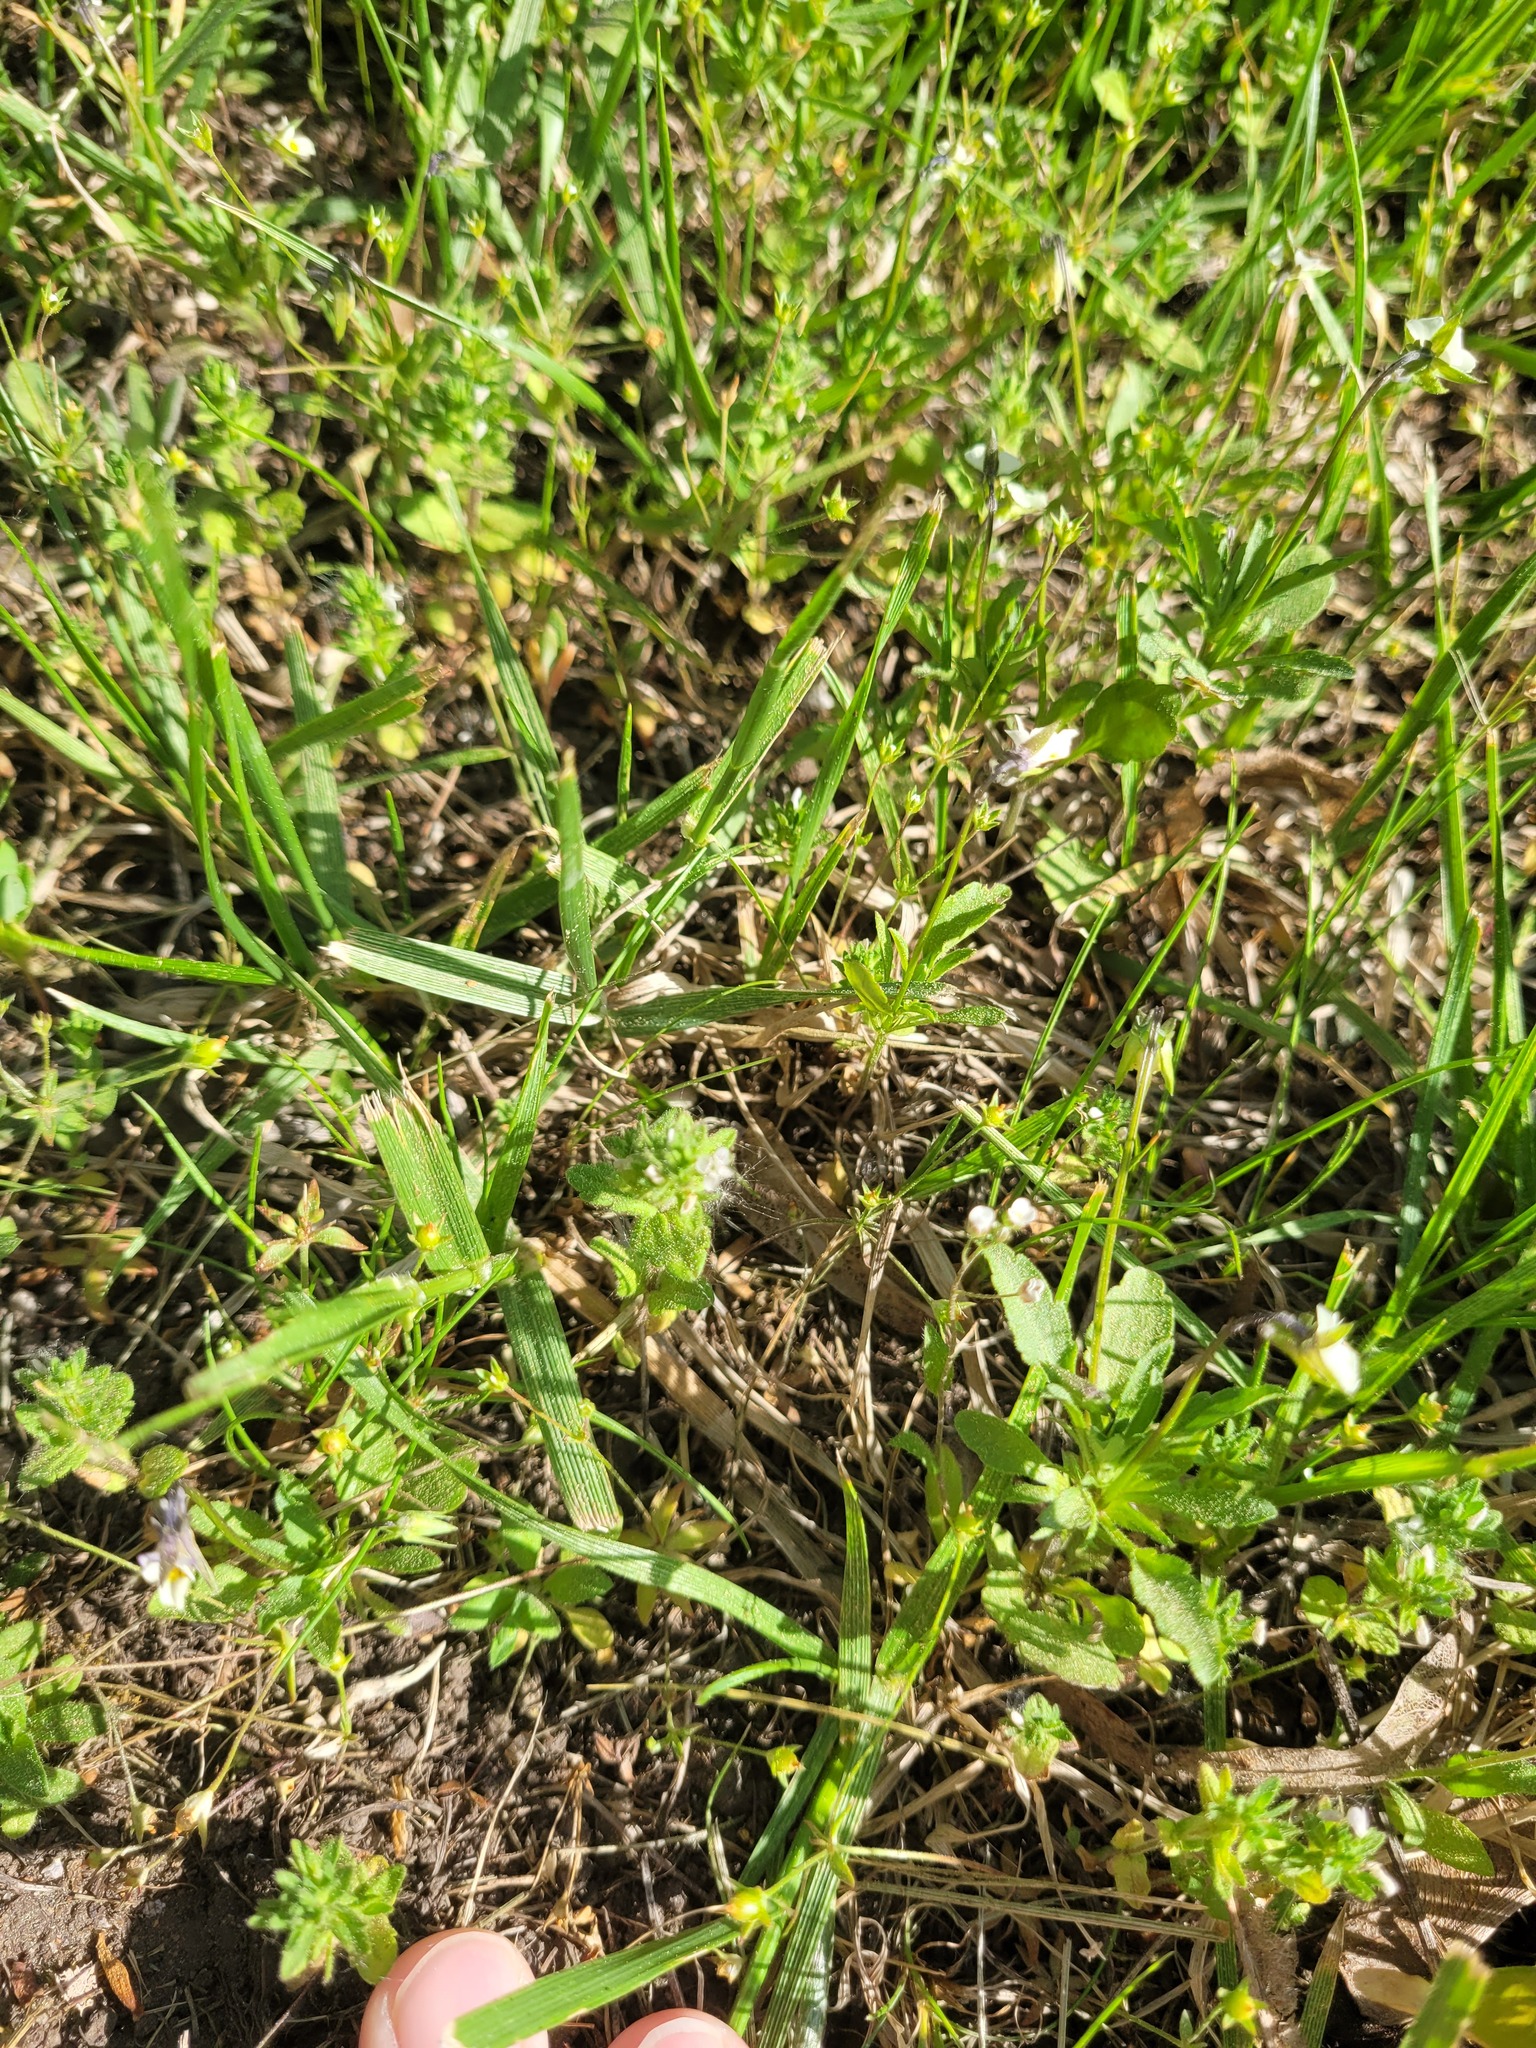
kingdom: Plantae
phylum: Tracheophyta
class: Magnoliopsida
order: Lamiales
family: Plantaginaceae
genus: Veronica
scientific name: Veronica arvensis
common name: Corn speedwell
